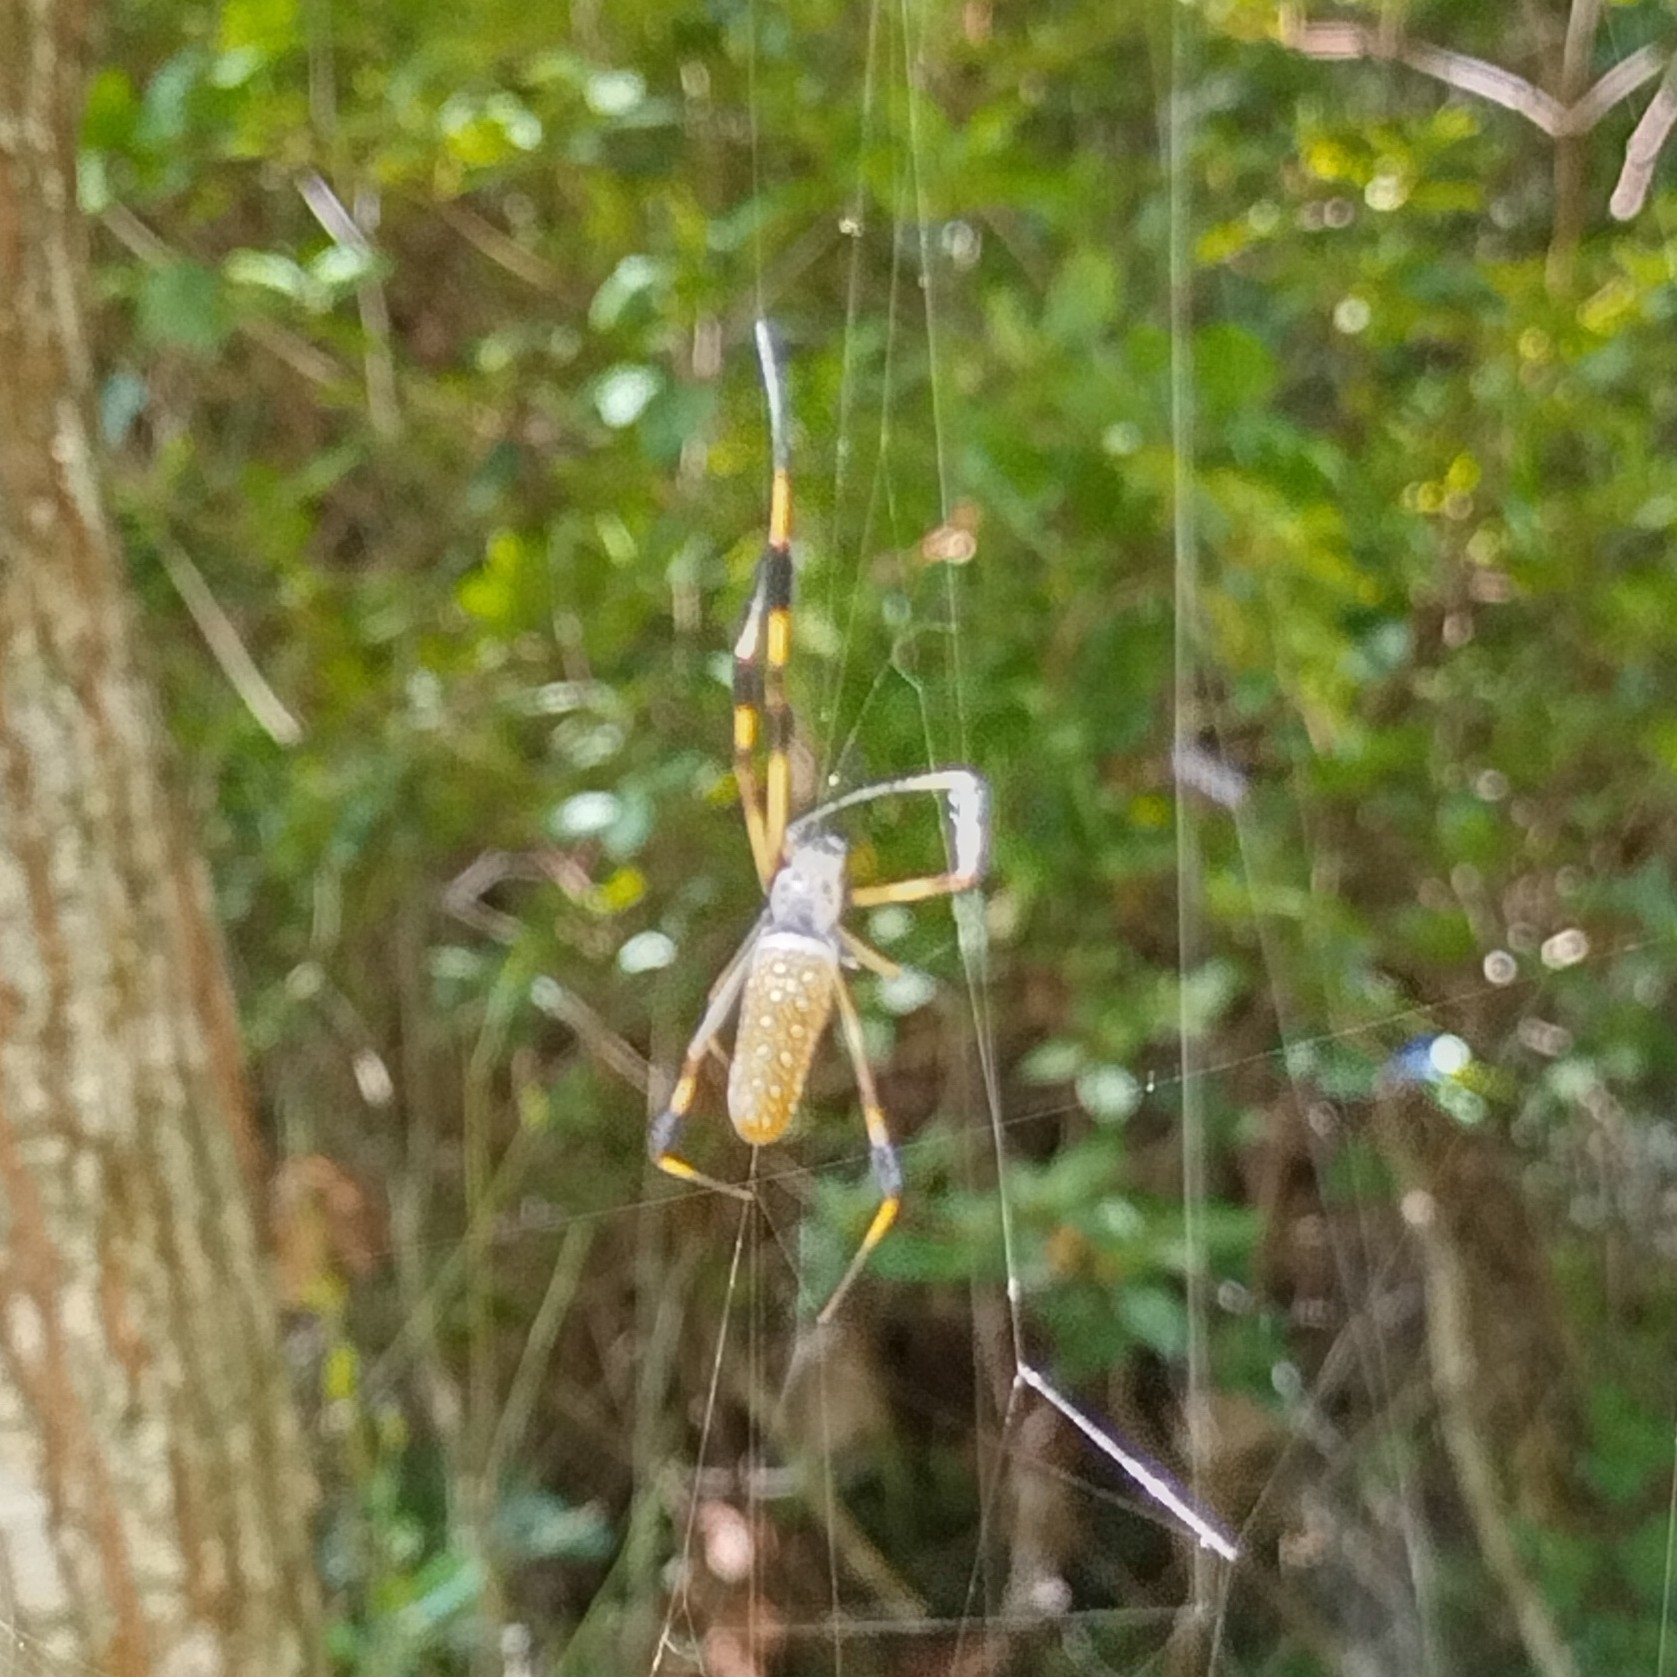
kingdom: Animalia
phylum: Arthropoda
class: Arachnida
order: Araneae
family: Araneidae
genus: Trichonephila
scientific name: Trichonephila clavipes
